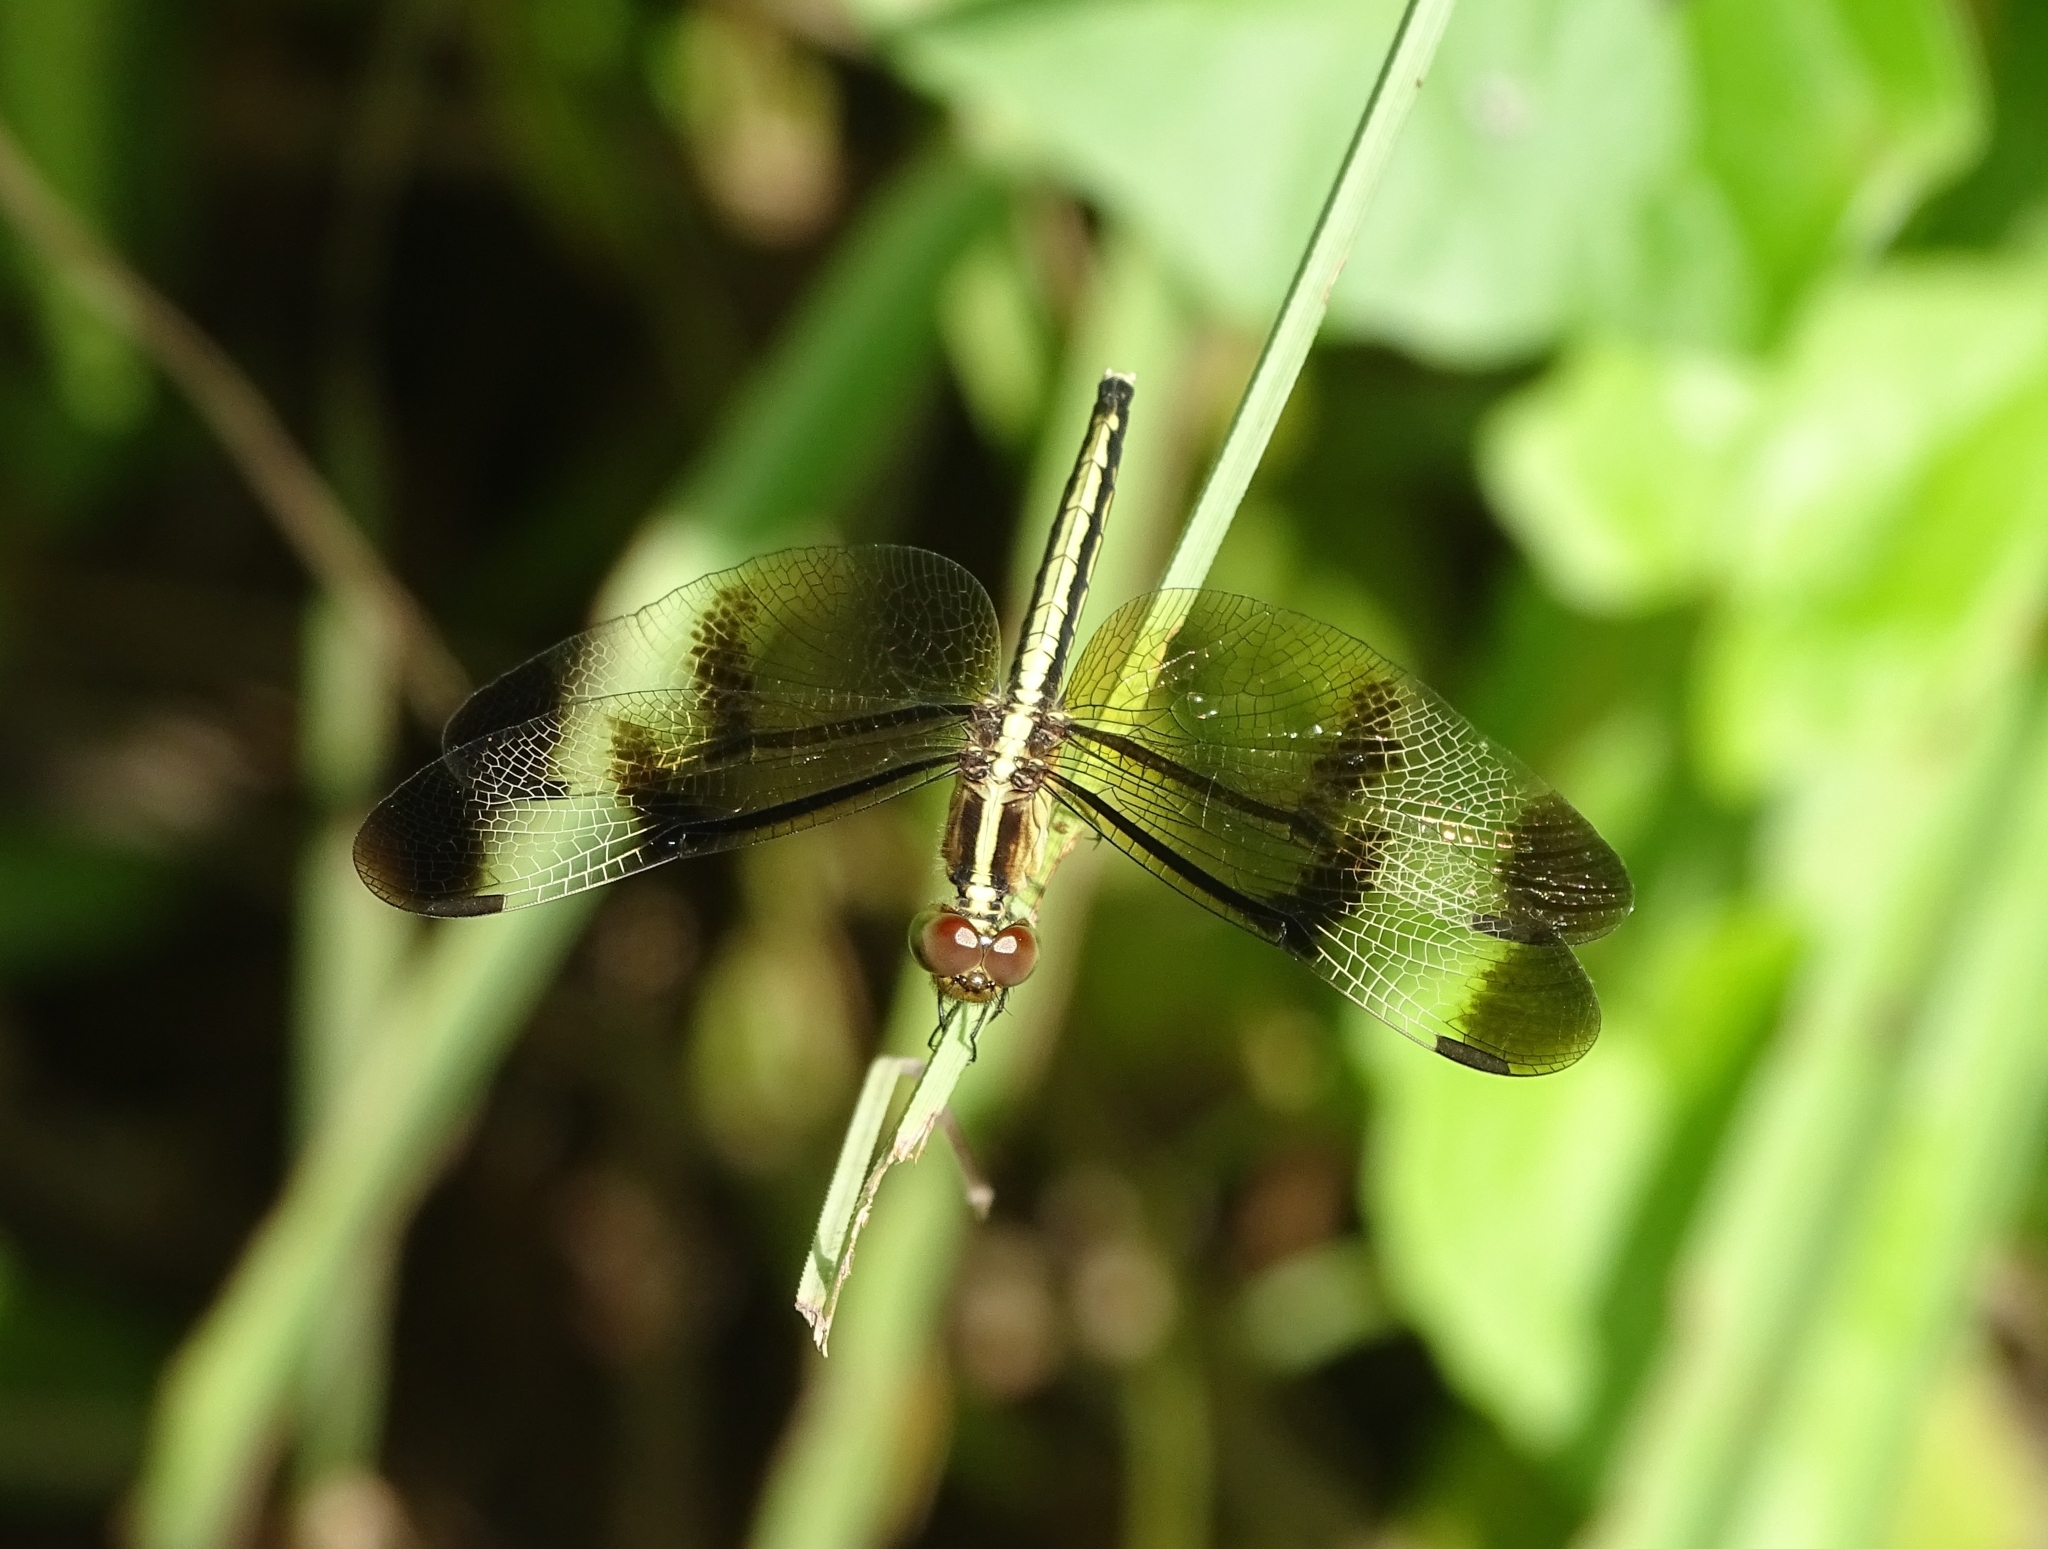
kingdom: Animalia
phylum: Arthropoda
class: Insecta
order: Odonata
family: Libellulidae
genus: Neurothemis
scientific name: Neurothemis tullia
